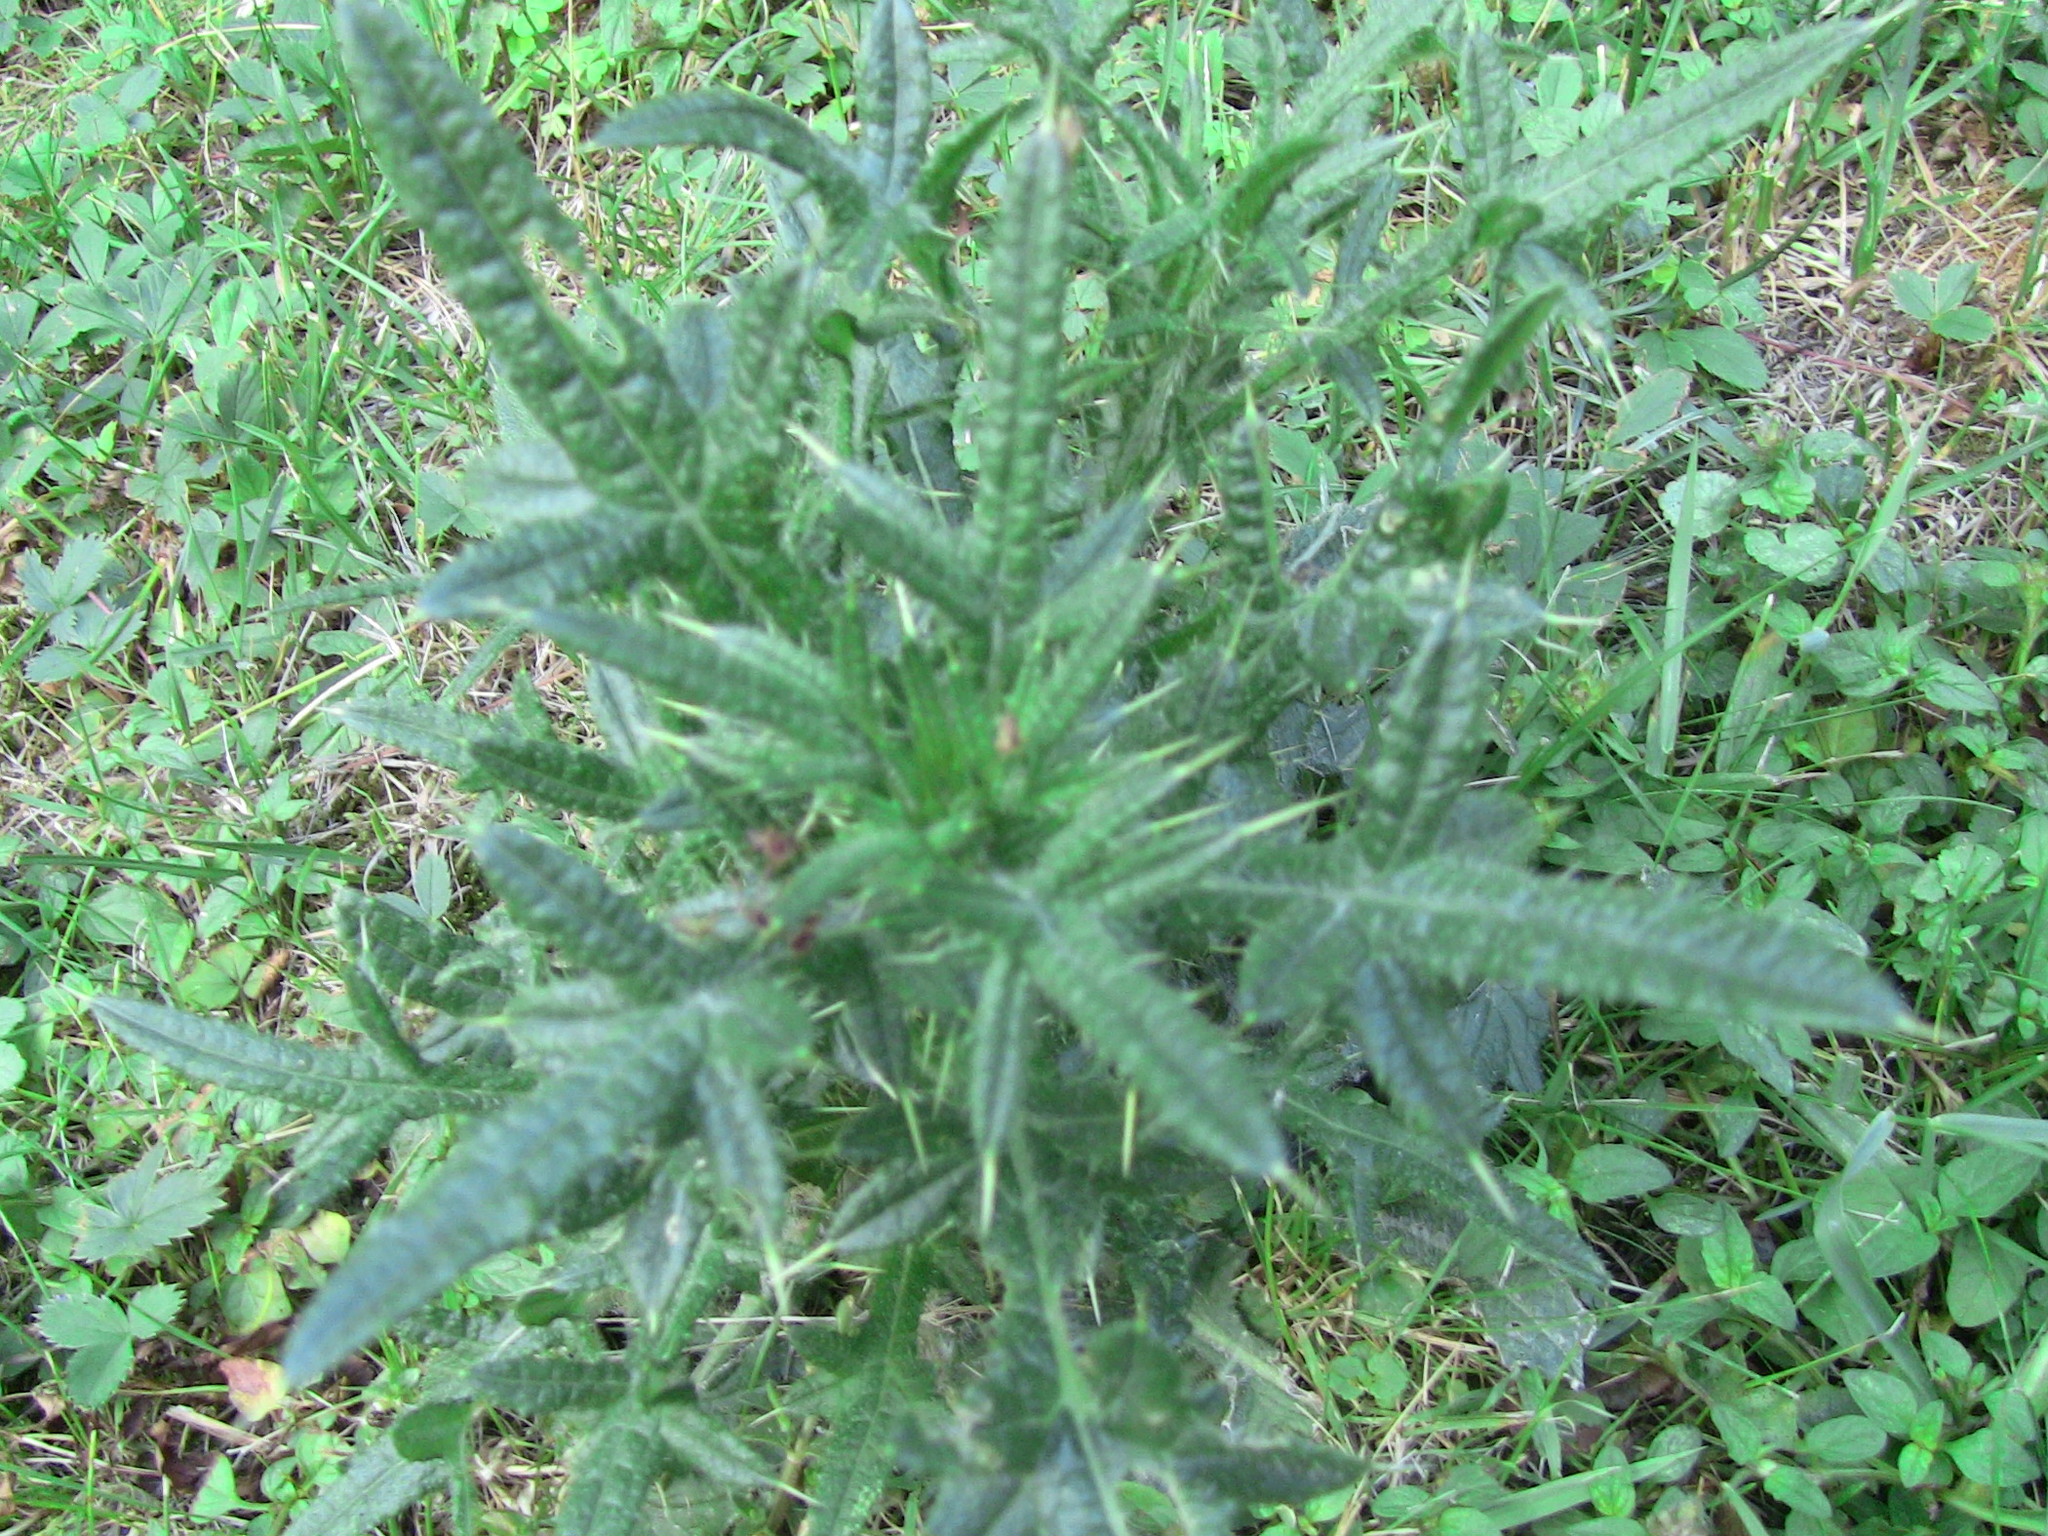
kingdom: Plantae
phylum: Tracheophyta
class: Magnoliopsida
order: Asterales
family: Asteraceae
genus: Cirsium
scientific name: Cirsium vulgare
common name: Bull thistle
